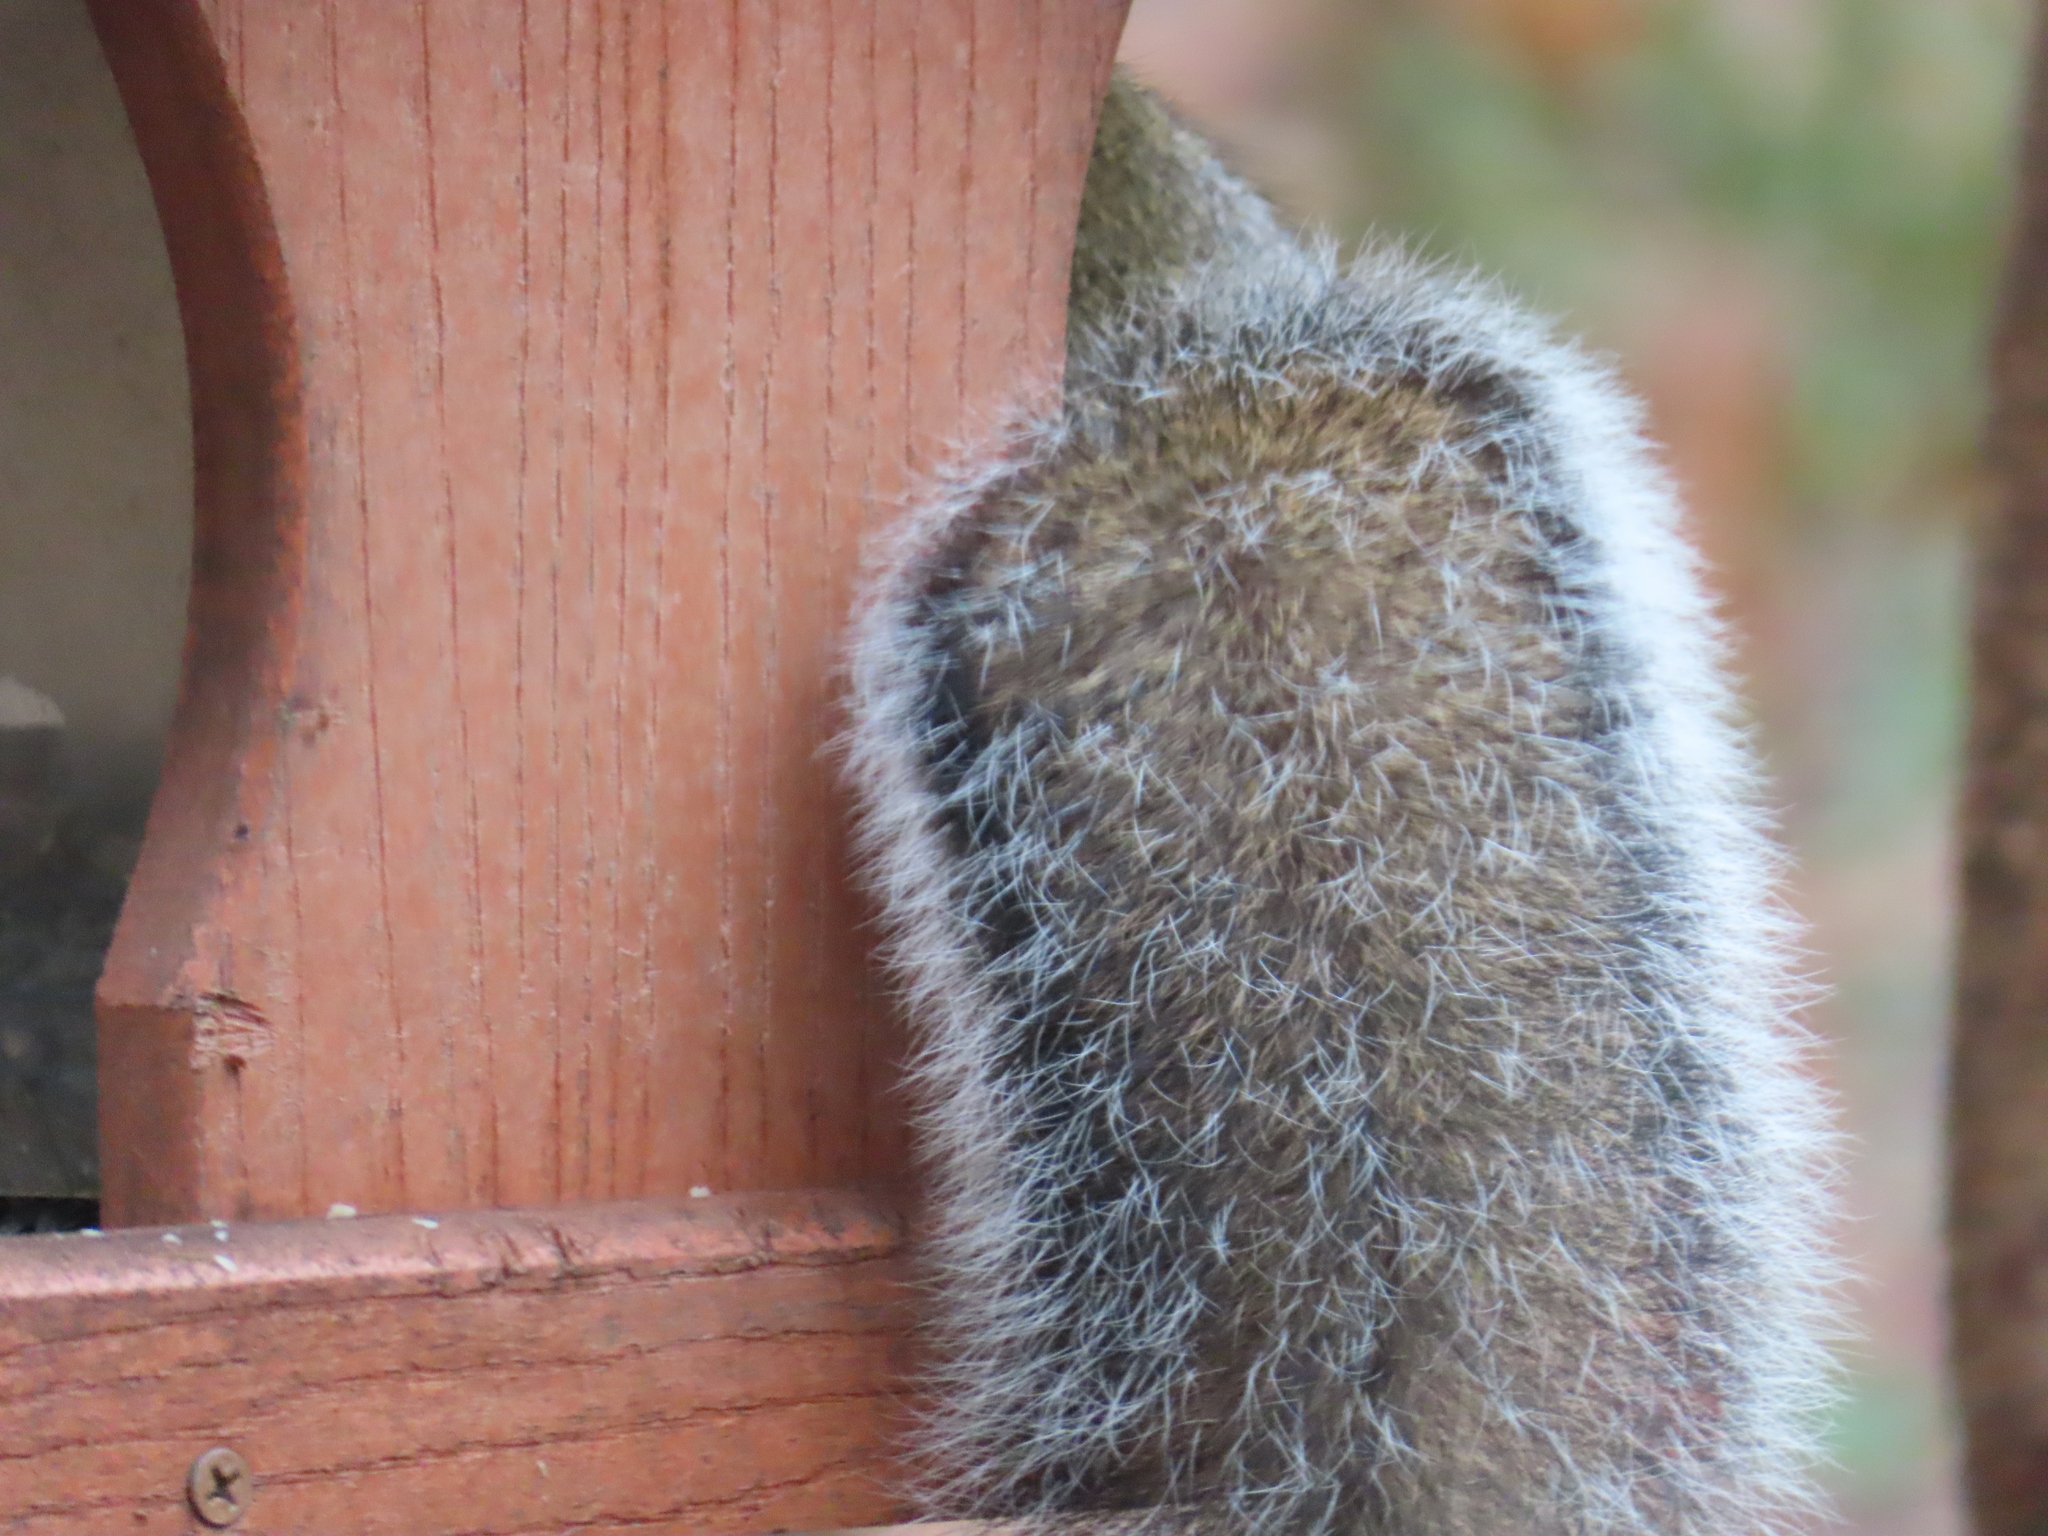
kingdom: Animalia
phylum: Chordata
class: Mammalia
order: Rodentia
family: Sciuridae
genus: Sciurus
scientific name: Sciurus carolinensis
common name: Eastern gray squirrel
